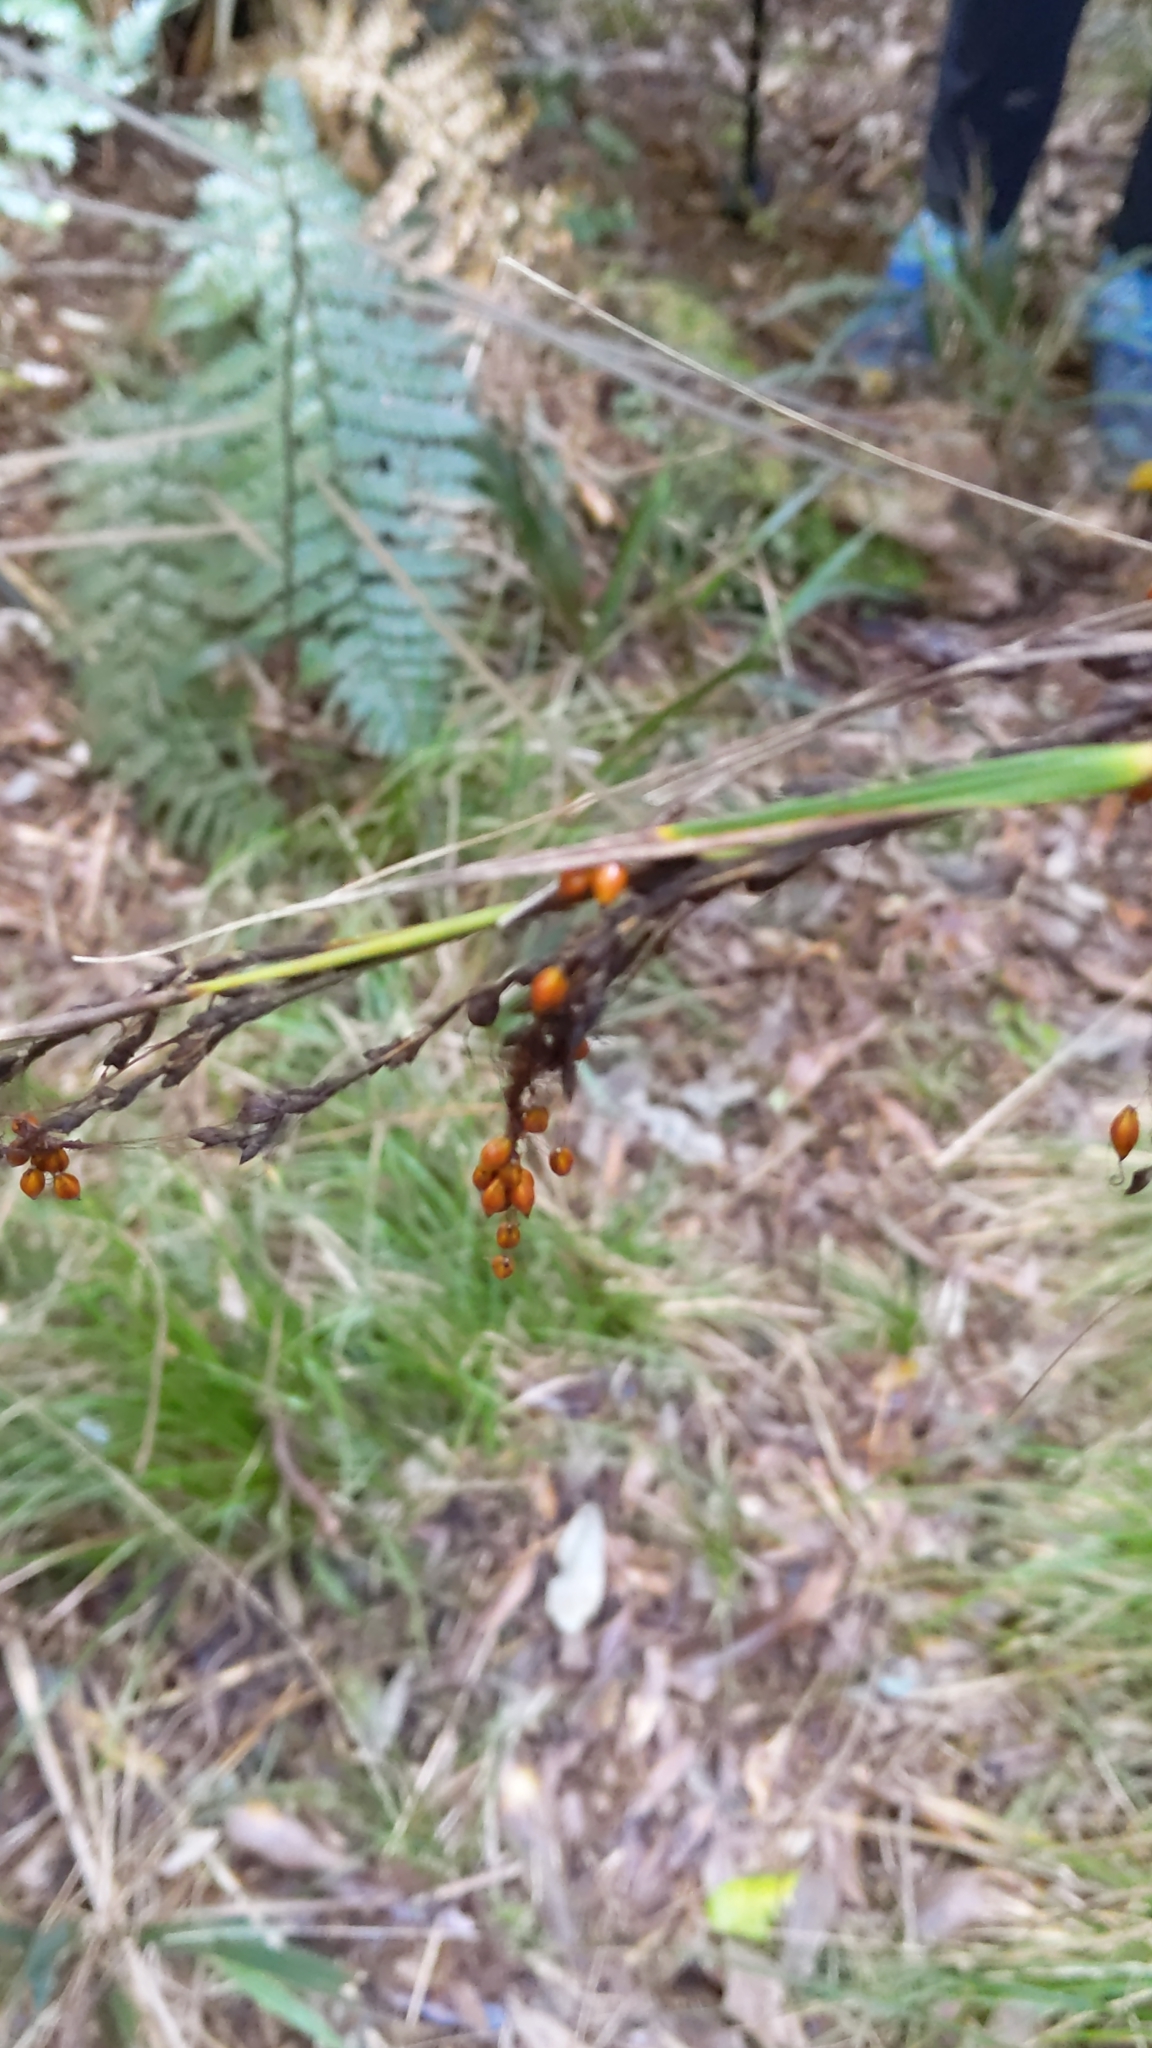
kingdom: Plantae
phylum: Tracheophyta
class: Liliopsida
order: Poales
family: Cyperaceae
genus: Gahnia
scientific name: Gahnia setifolia
